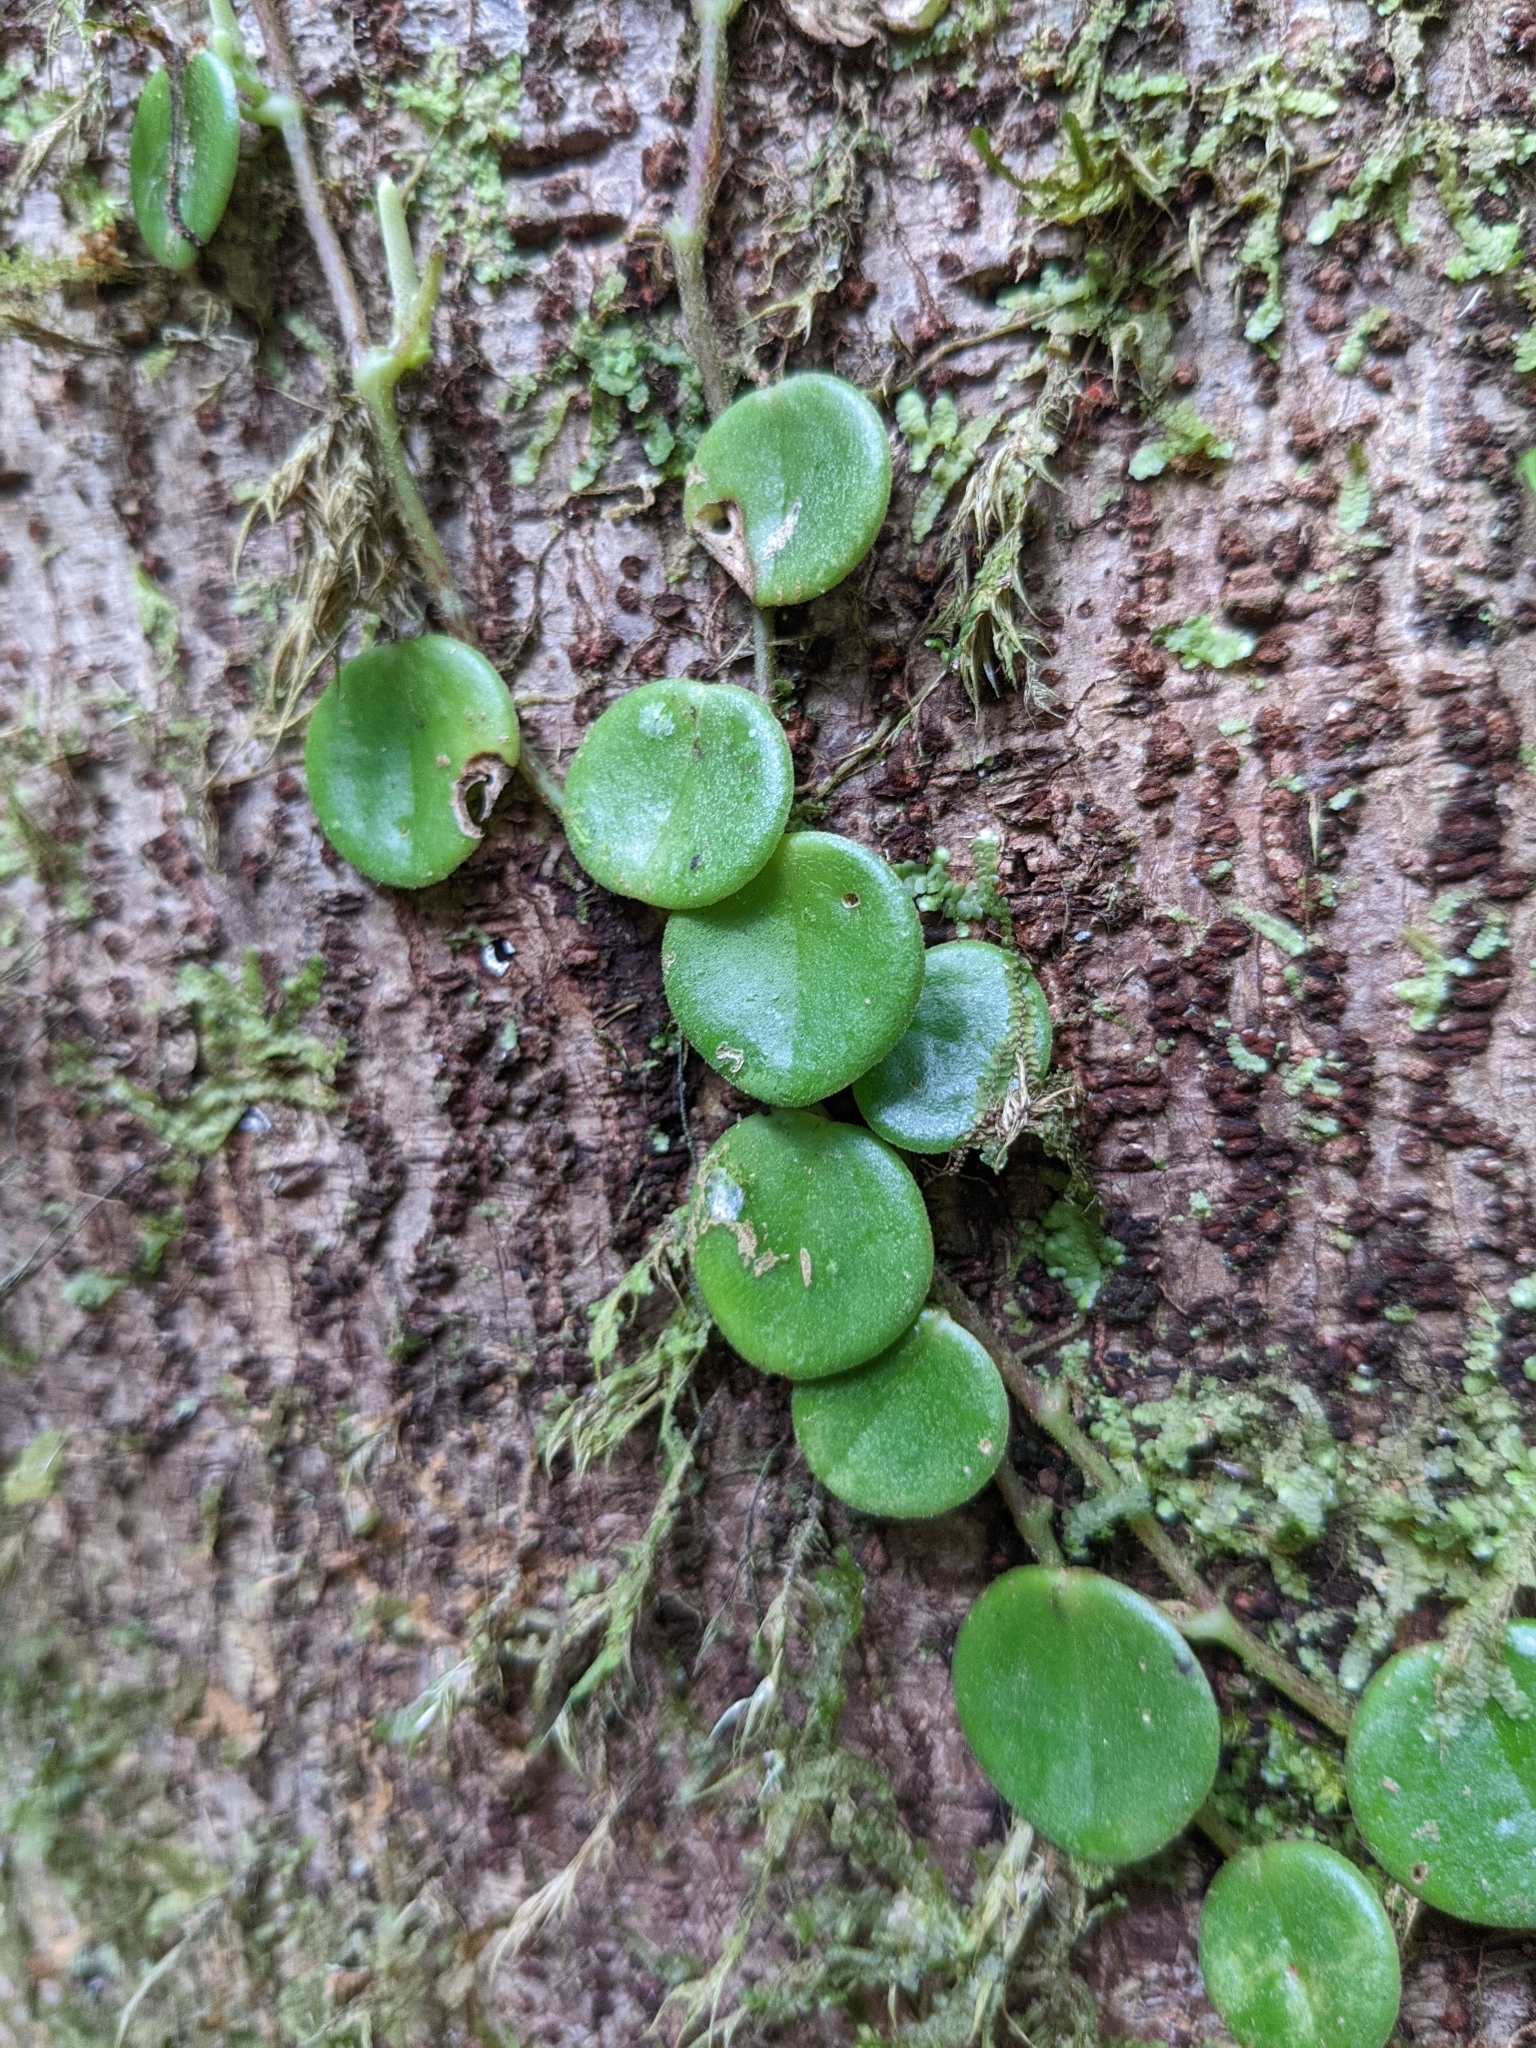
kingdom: Plantae
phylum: Tracheophyta
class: Magnoliopsida
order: Piperales
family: Piperaceae
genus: Peperomia
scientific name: Peperomia serpens
